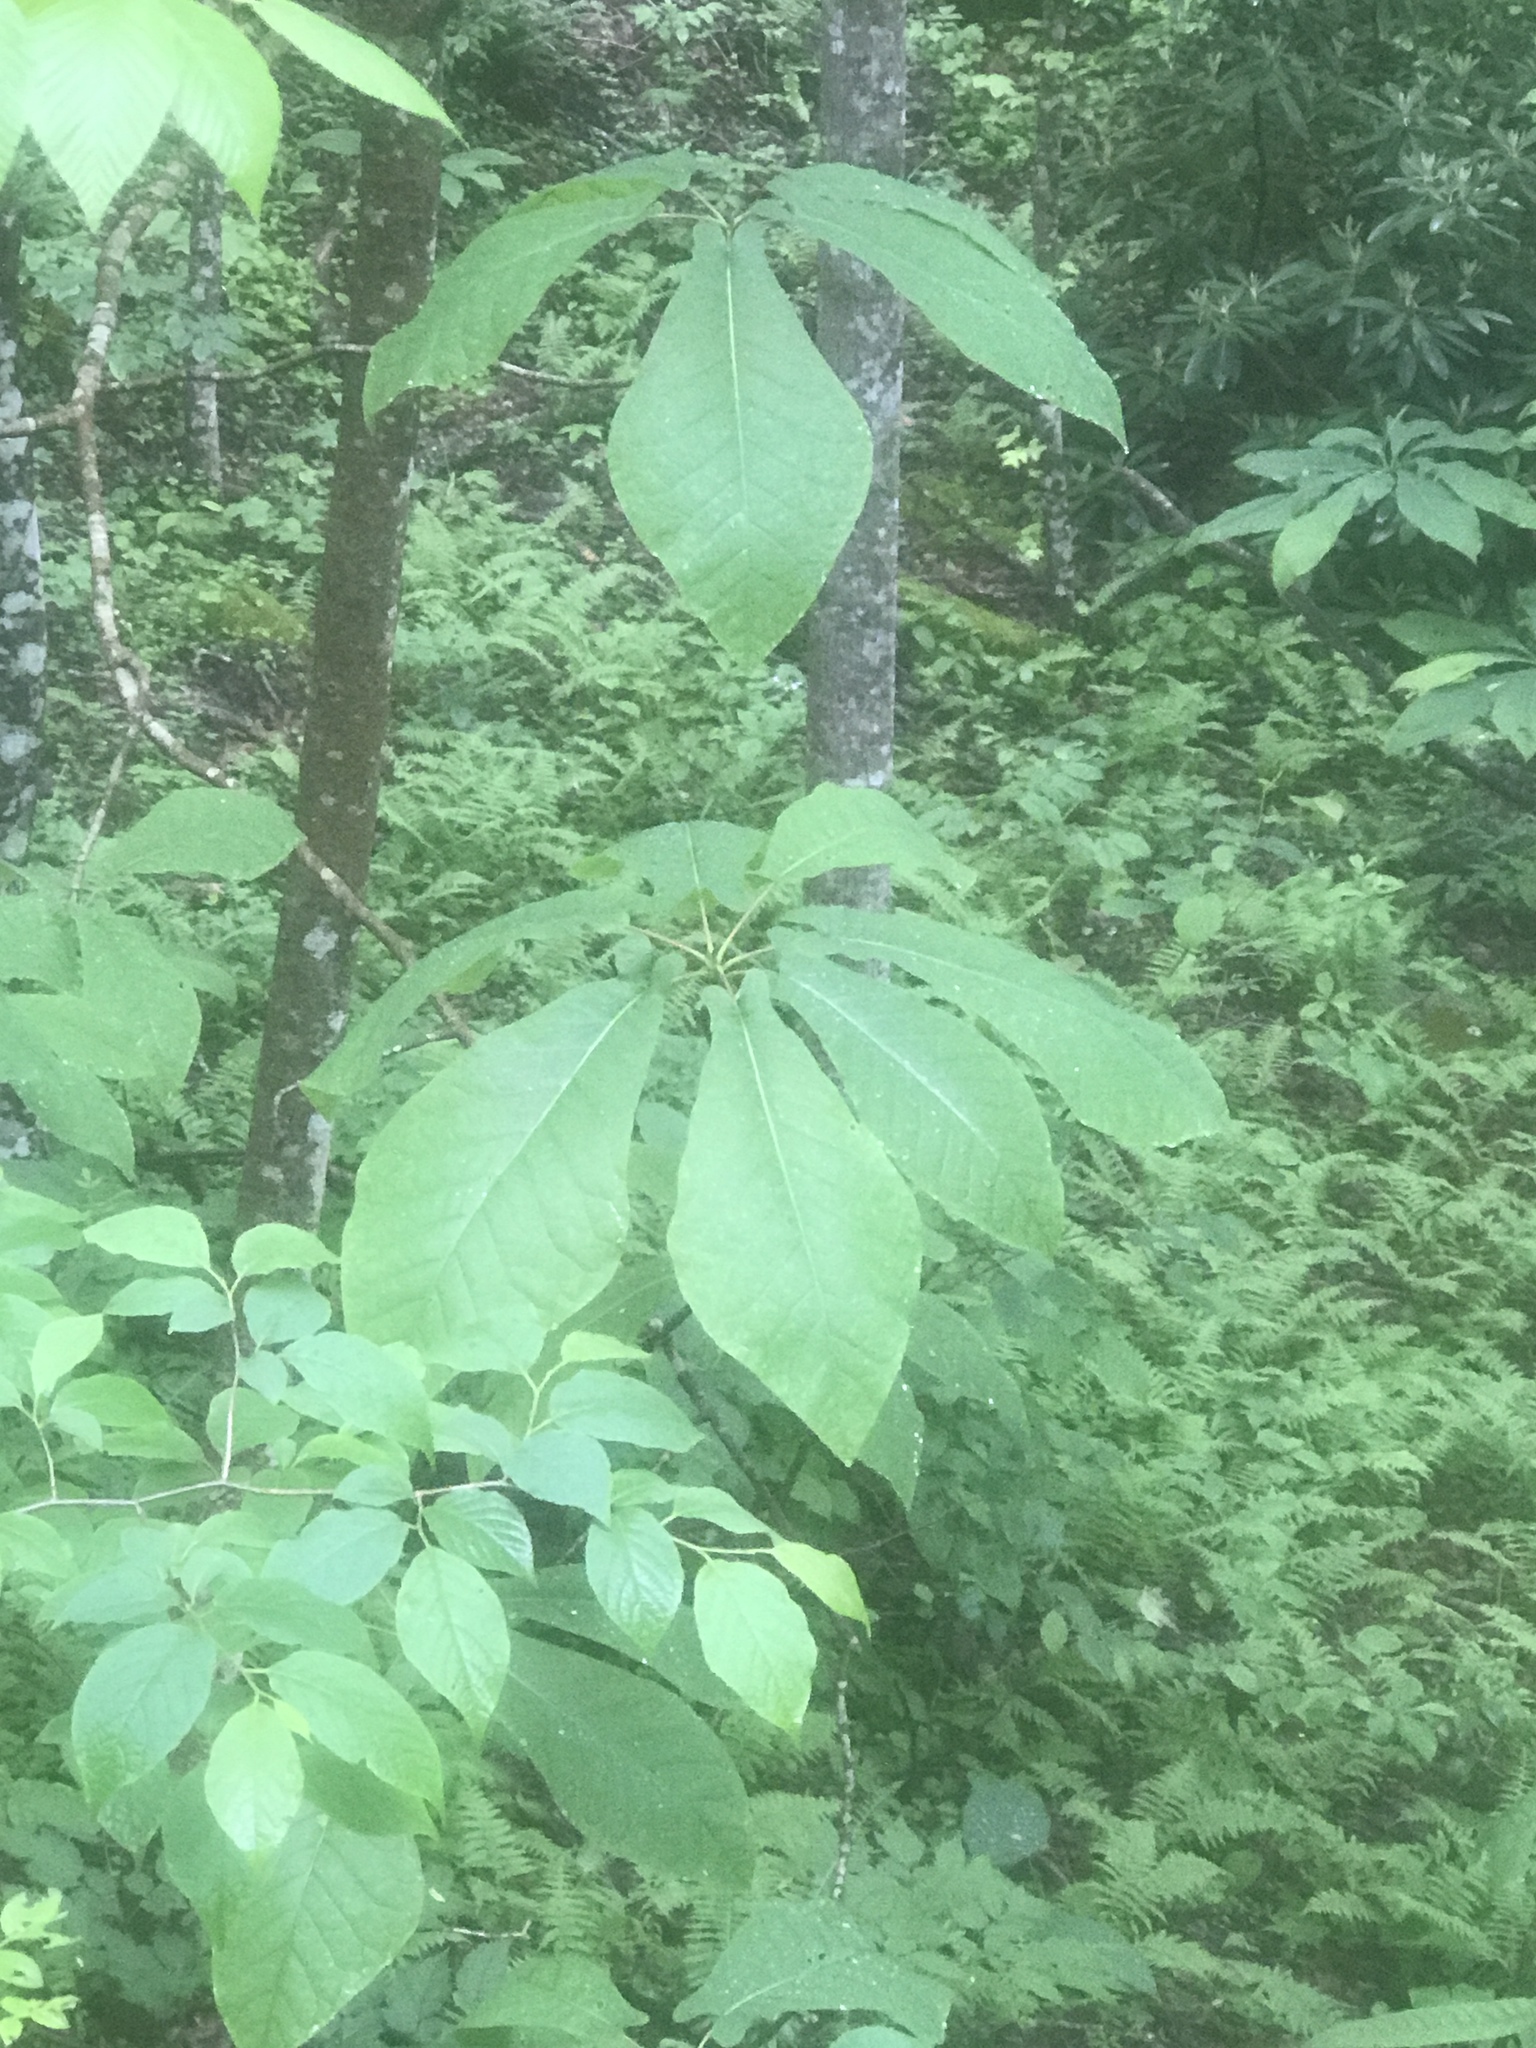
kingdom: Plantae
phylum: Tracheophyta
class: Magnoliopsida
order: Magnoliales
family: Magnoliaceae
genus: Magnolia
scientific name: Magnolia fraseri
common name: Fraser's magnolia
